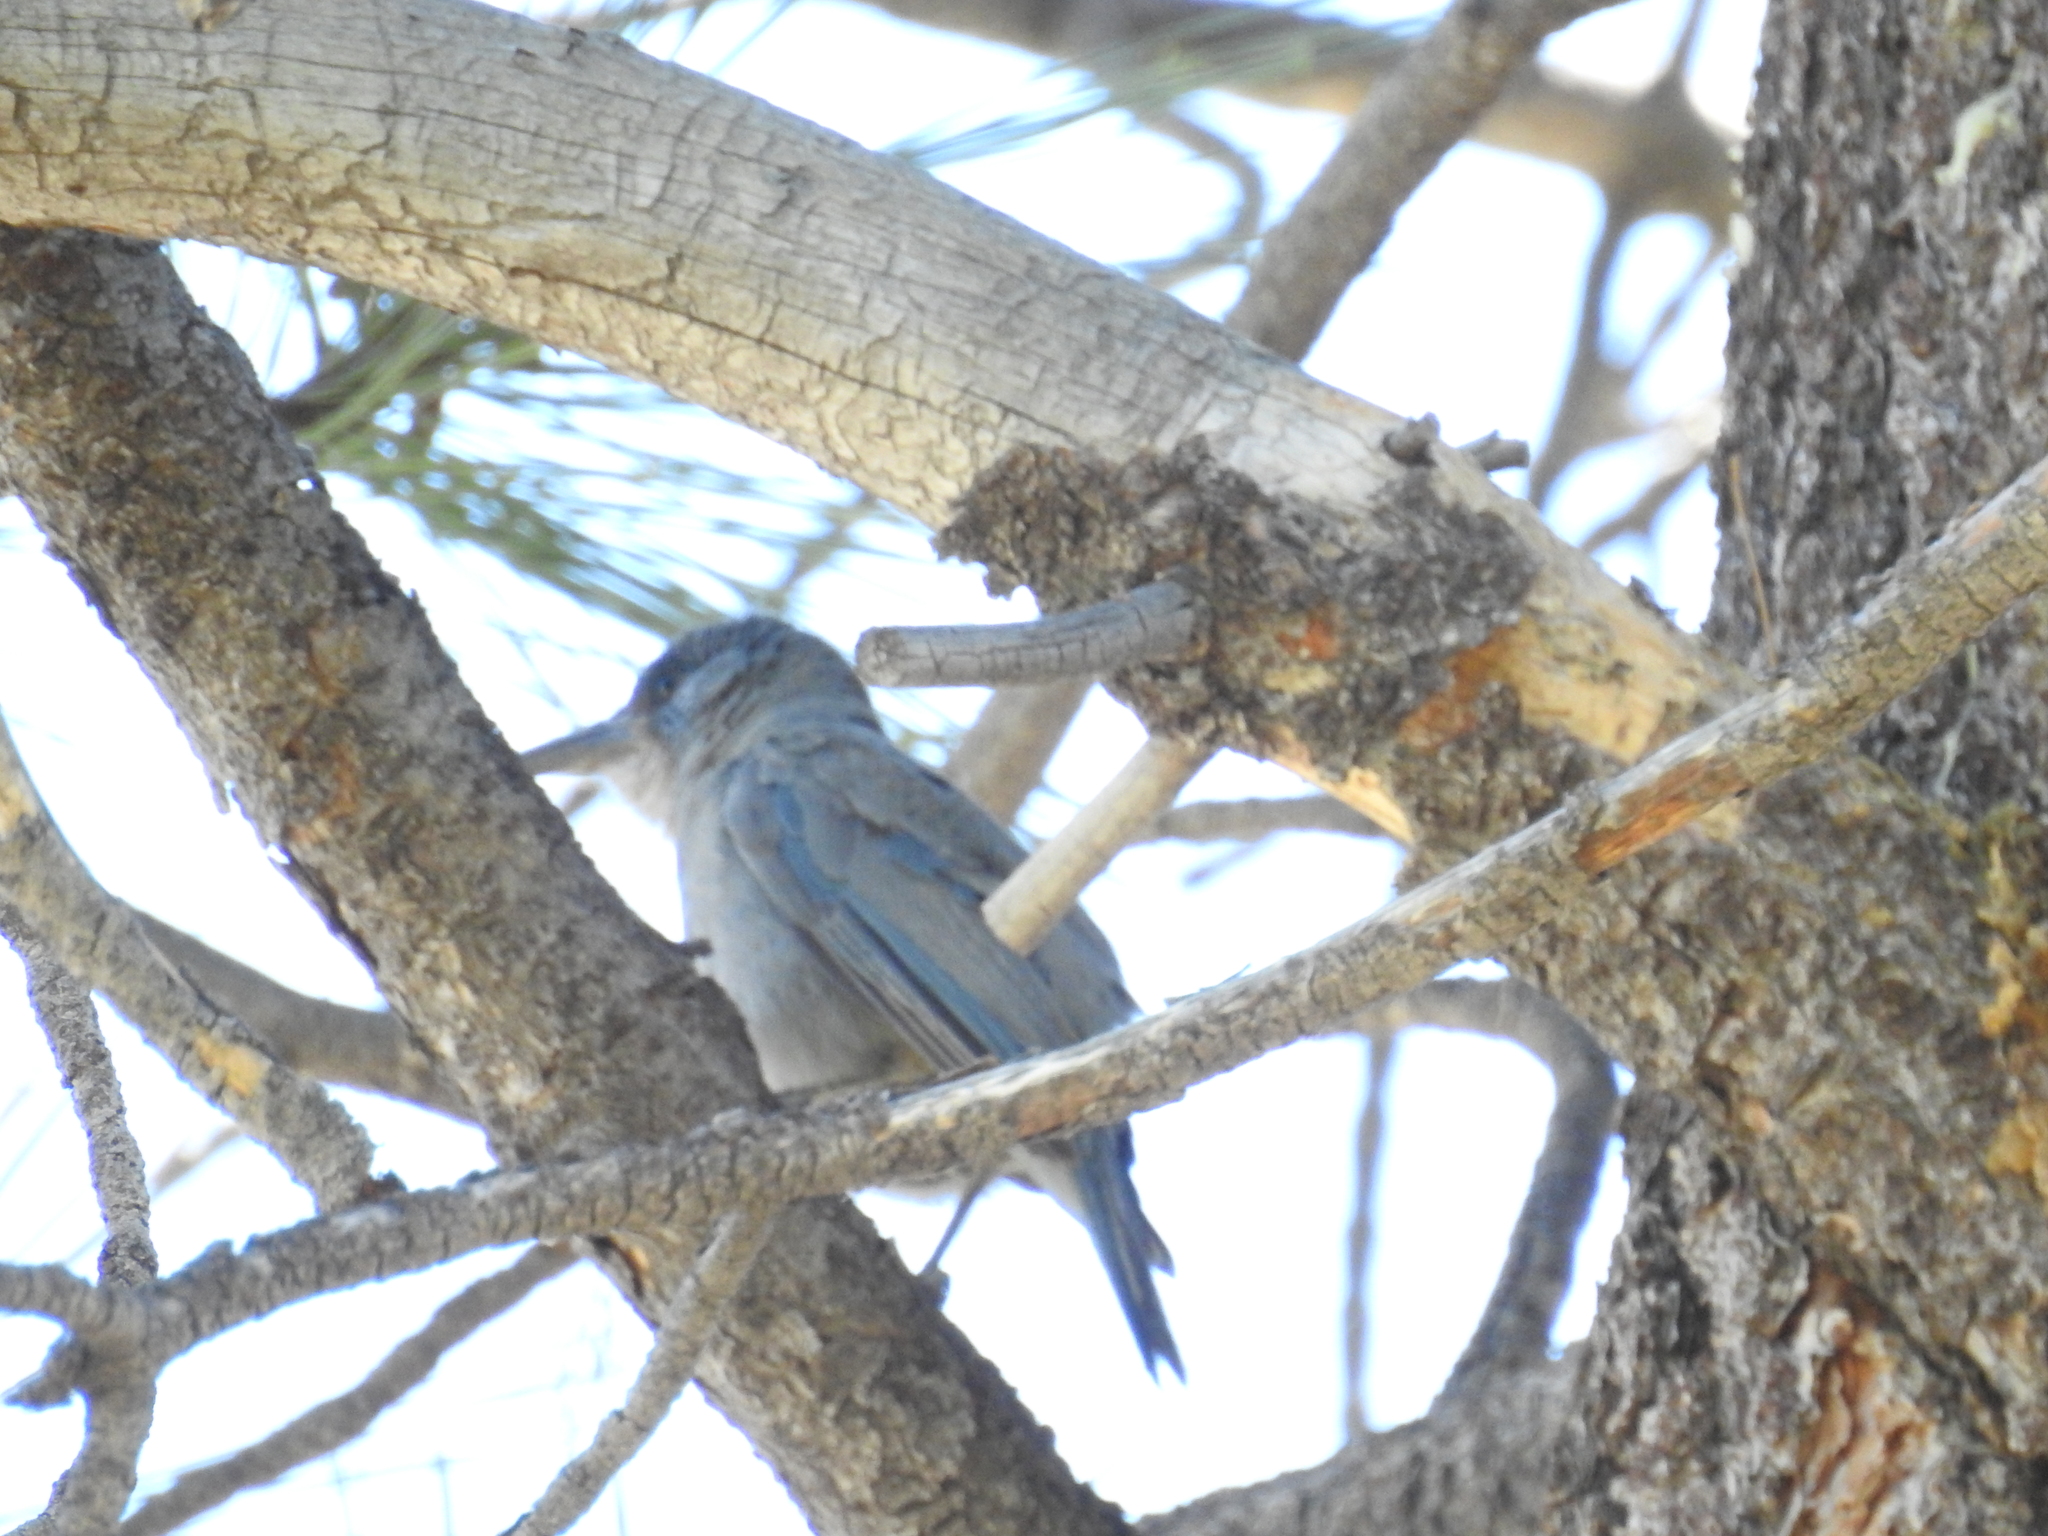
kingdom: Animalia
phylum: Chordata
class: Aves
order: Passeriformes
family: Corvidae
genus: Gymnorhinus
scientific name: Gymnorhinus cyanocephalus
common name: Pinyon jay
